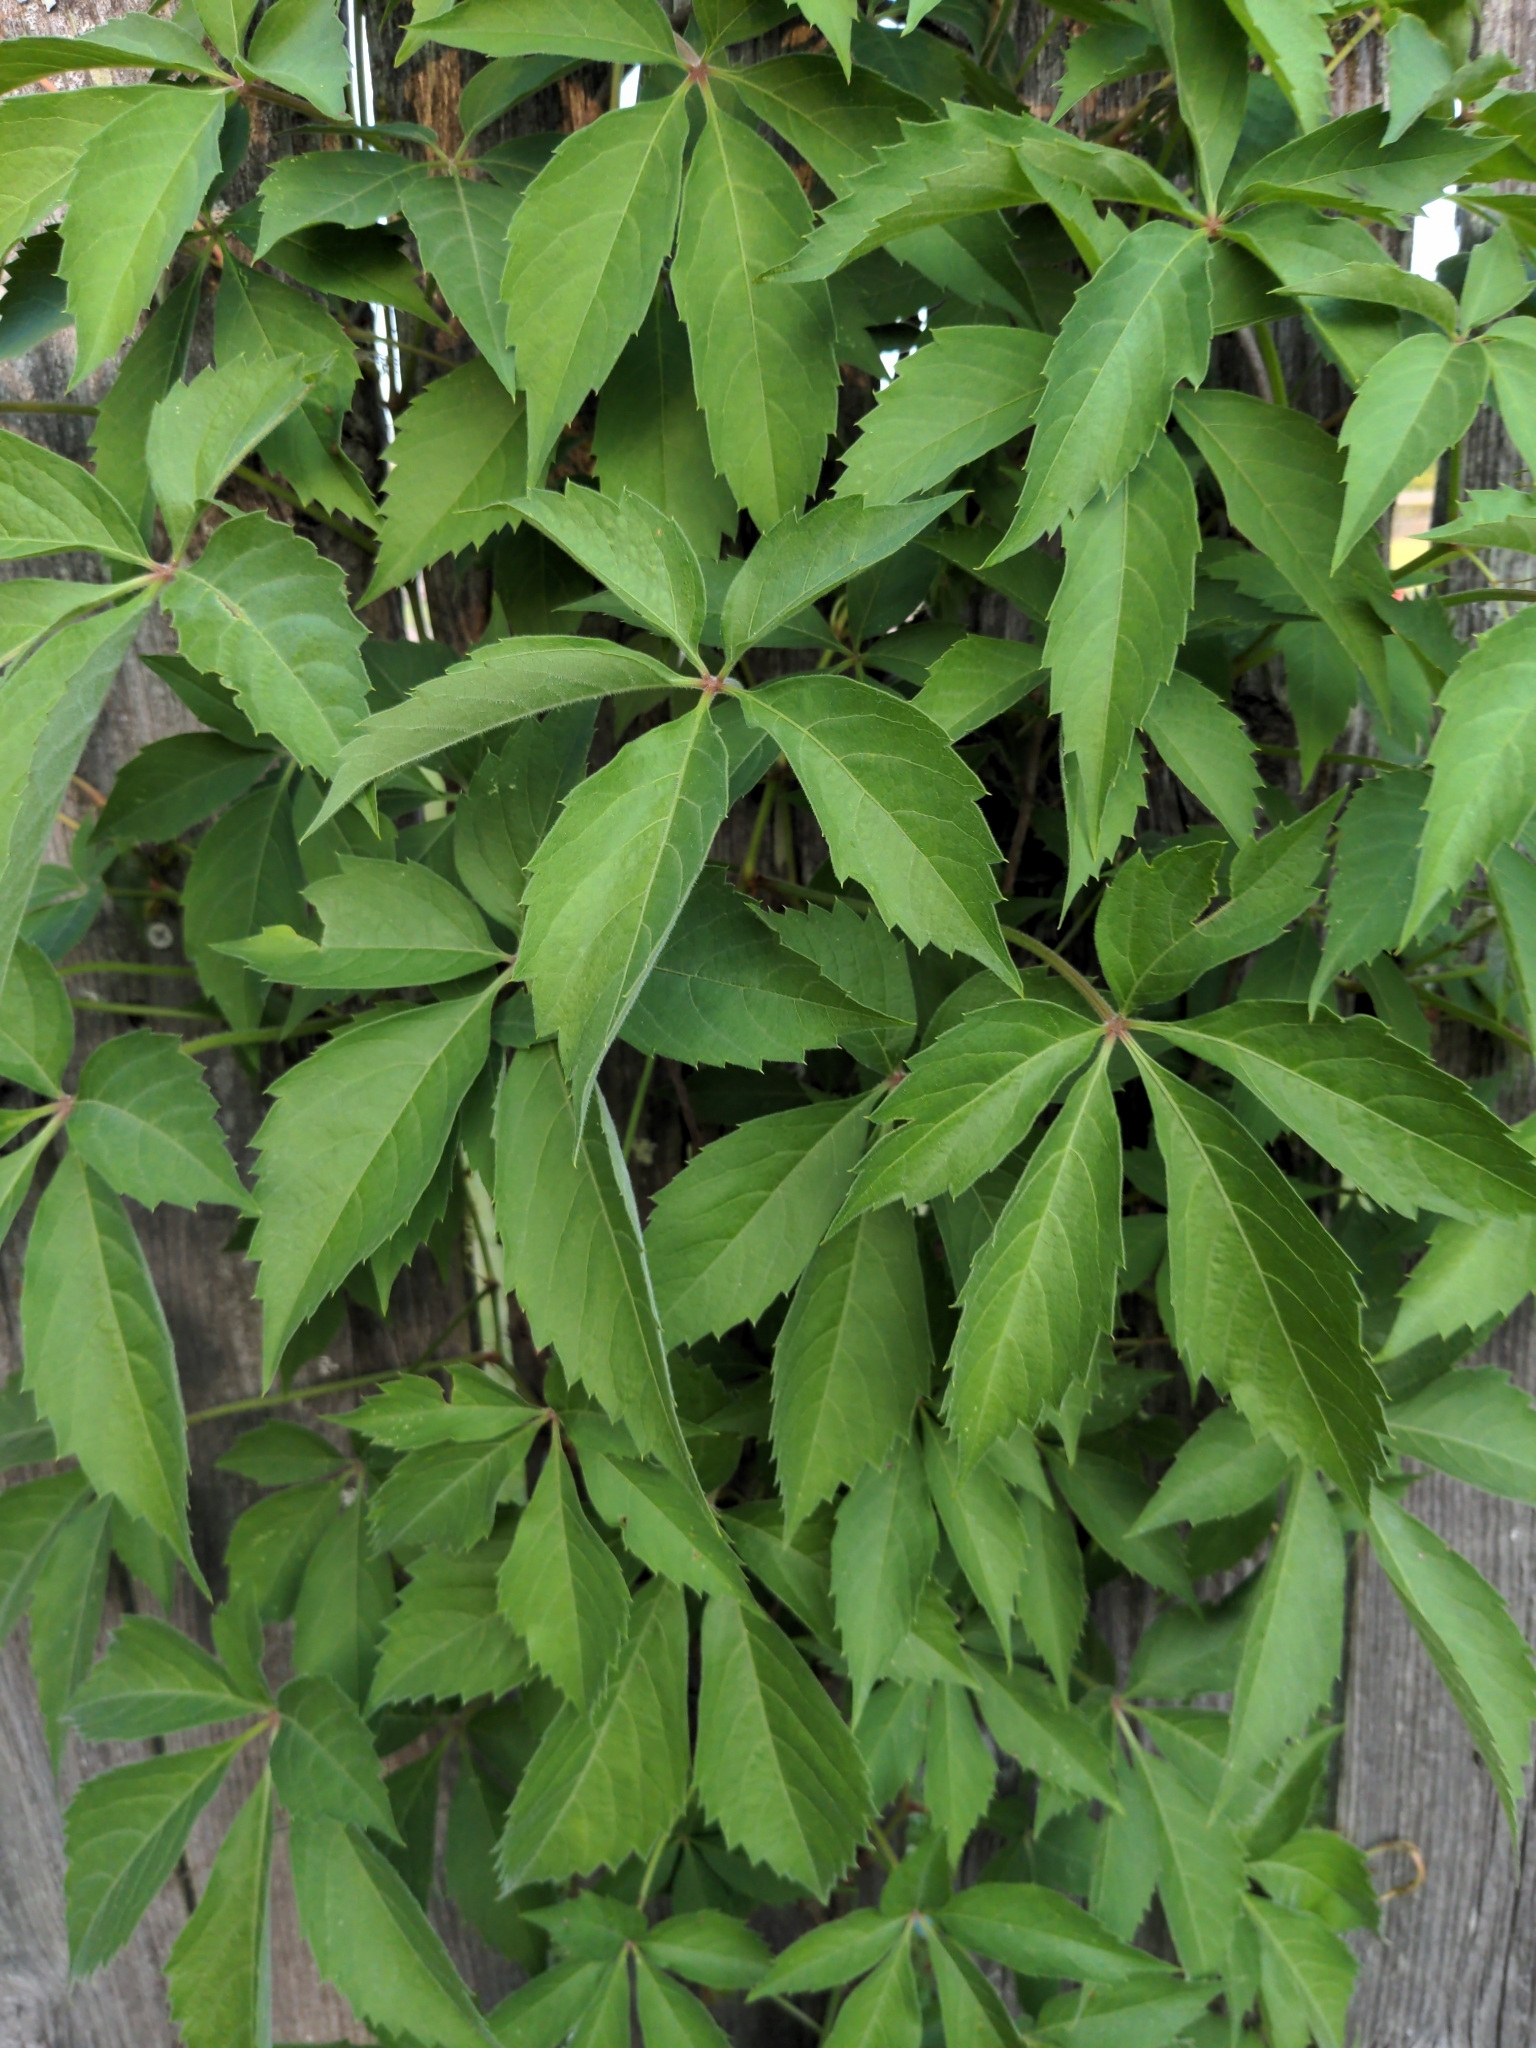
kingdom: Plantae
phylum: Tracheophyta
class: Magnoliopsida
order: Vitales
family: Vitaceae
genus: Parthenocissus
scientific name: Parthenocissus quinquefolia
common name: Virginia-creeper
